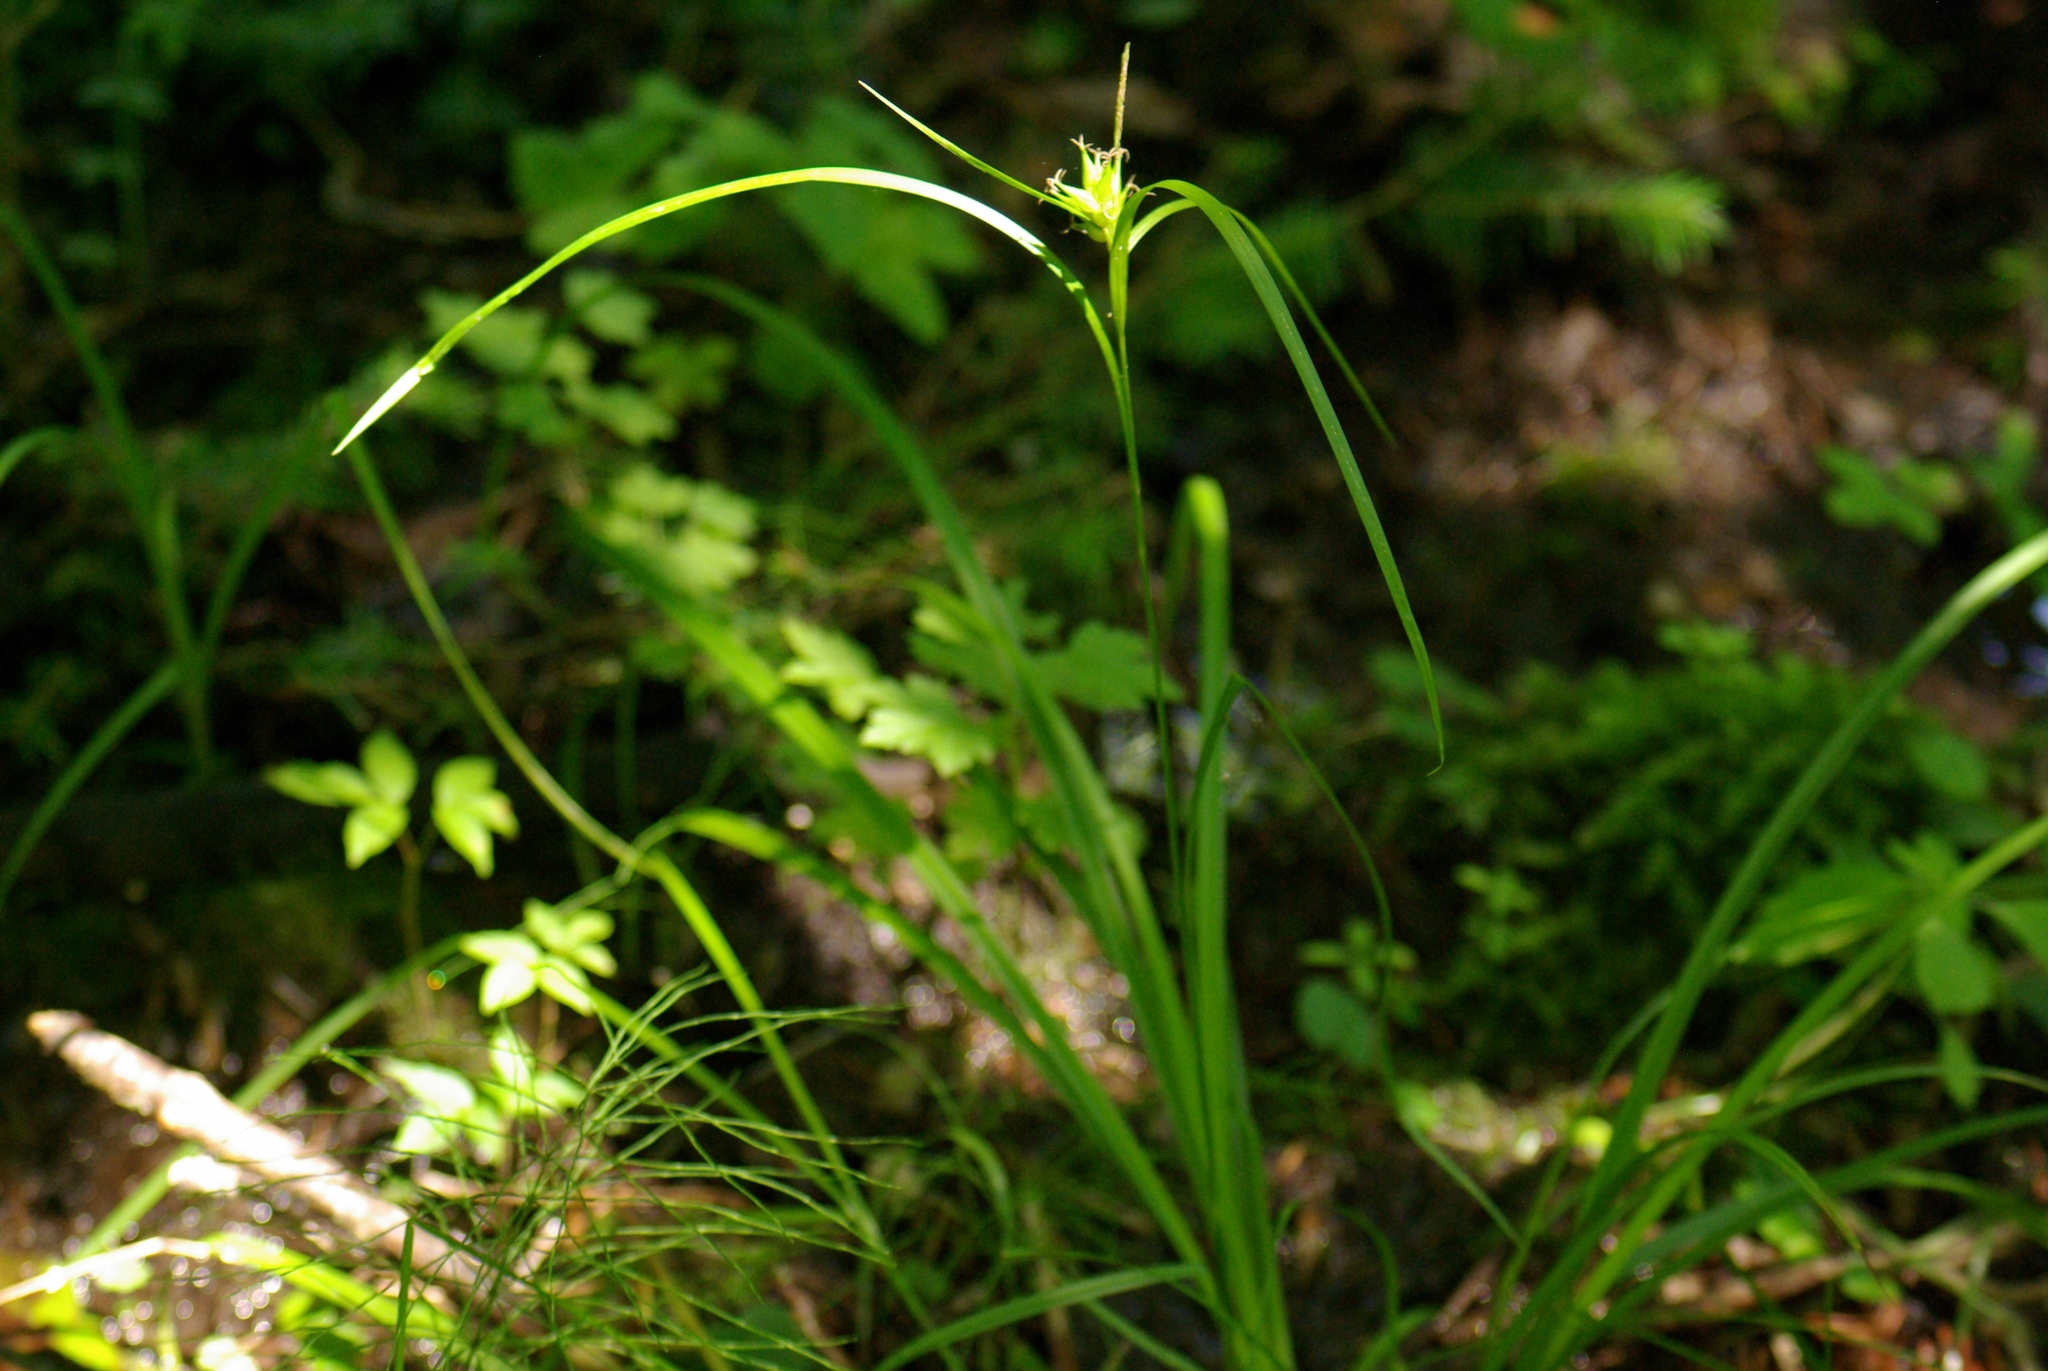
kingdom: Plantae
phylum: Tracheophyta
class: Liliopsida
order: Poales
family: Cyperaceae
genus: Carex
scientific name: Carex intumescens
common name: Greater bladder sedge
